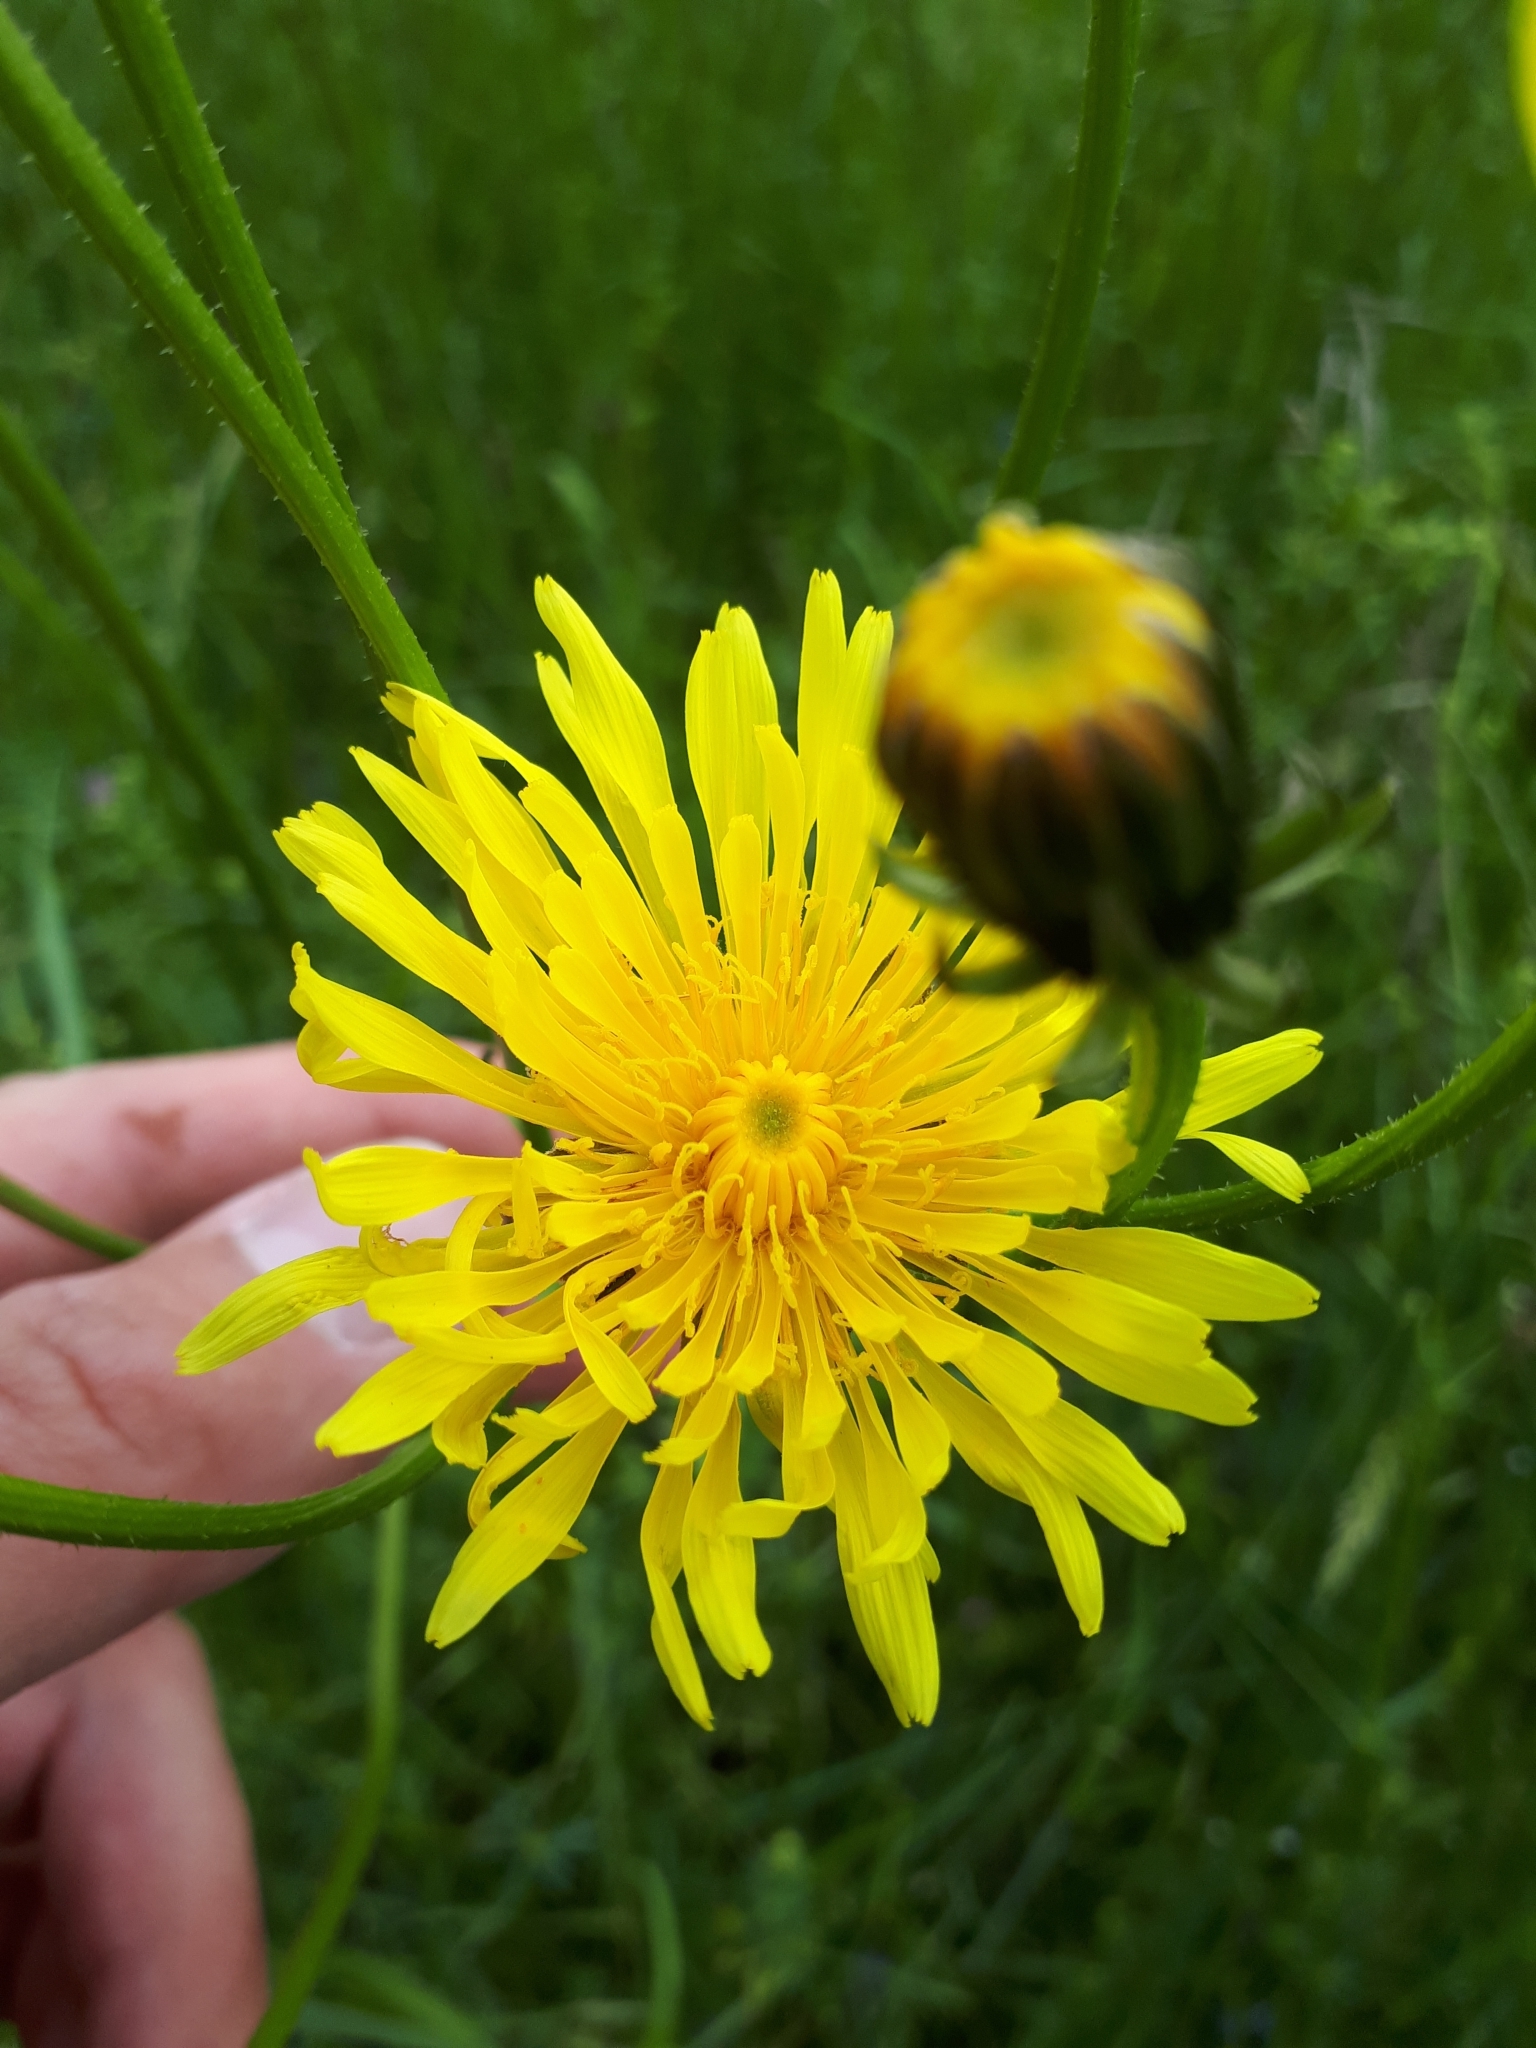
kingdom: Plantae
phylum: Tracheophyta
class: Magnoliopsida
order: Asterales
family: Asteraceae
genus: Crepis
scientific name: Crepis biennis
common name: Rough hawk's-beard
